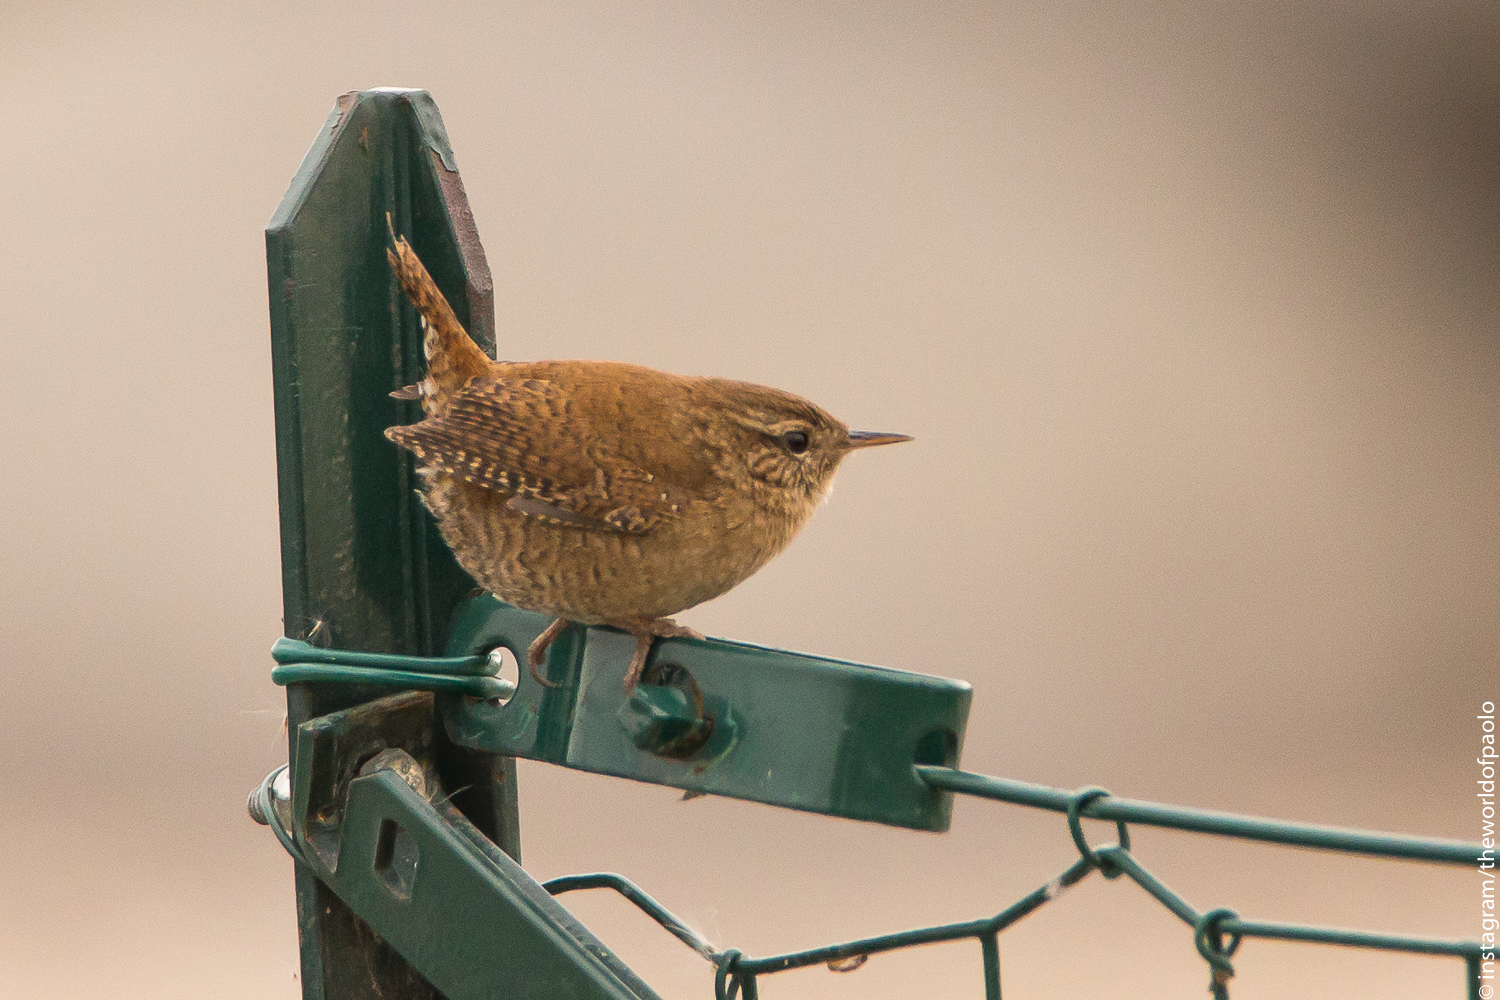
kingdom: Animalia
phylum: Chordata
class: Aves
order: Passeriformes
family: Troglodytidae
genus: Troglodytes
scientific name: Troglodytes troglodytes
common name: Eurasian wren
